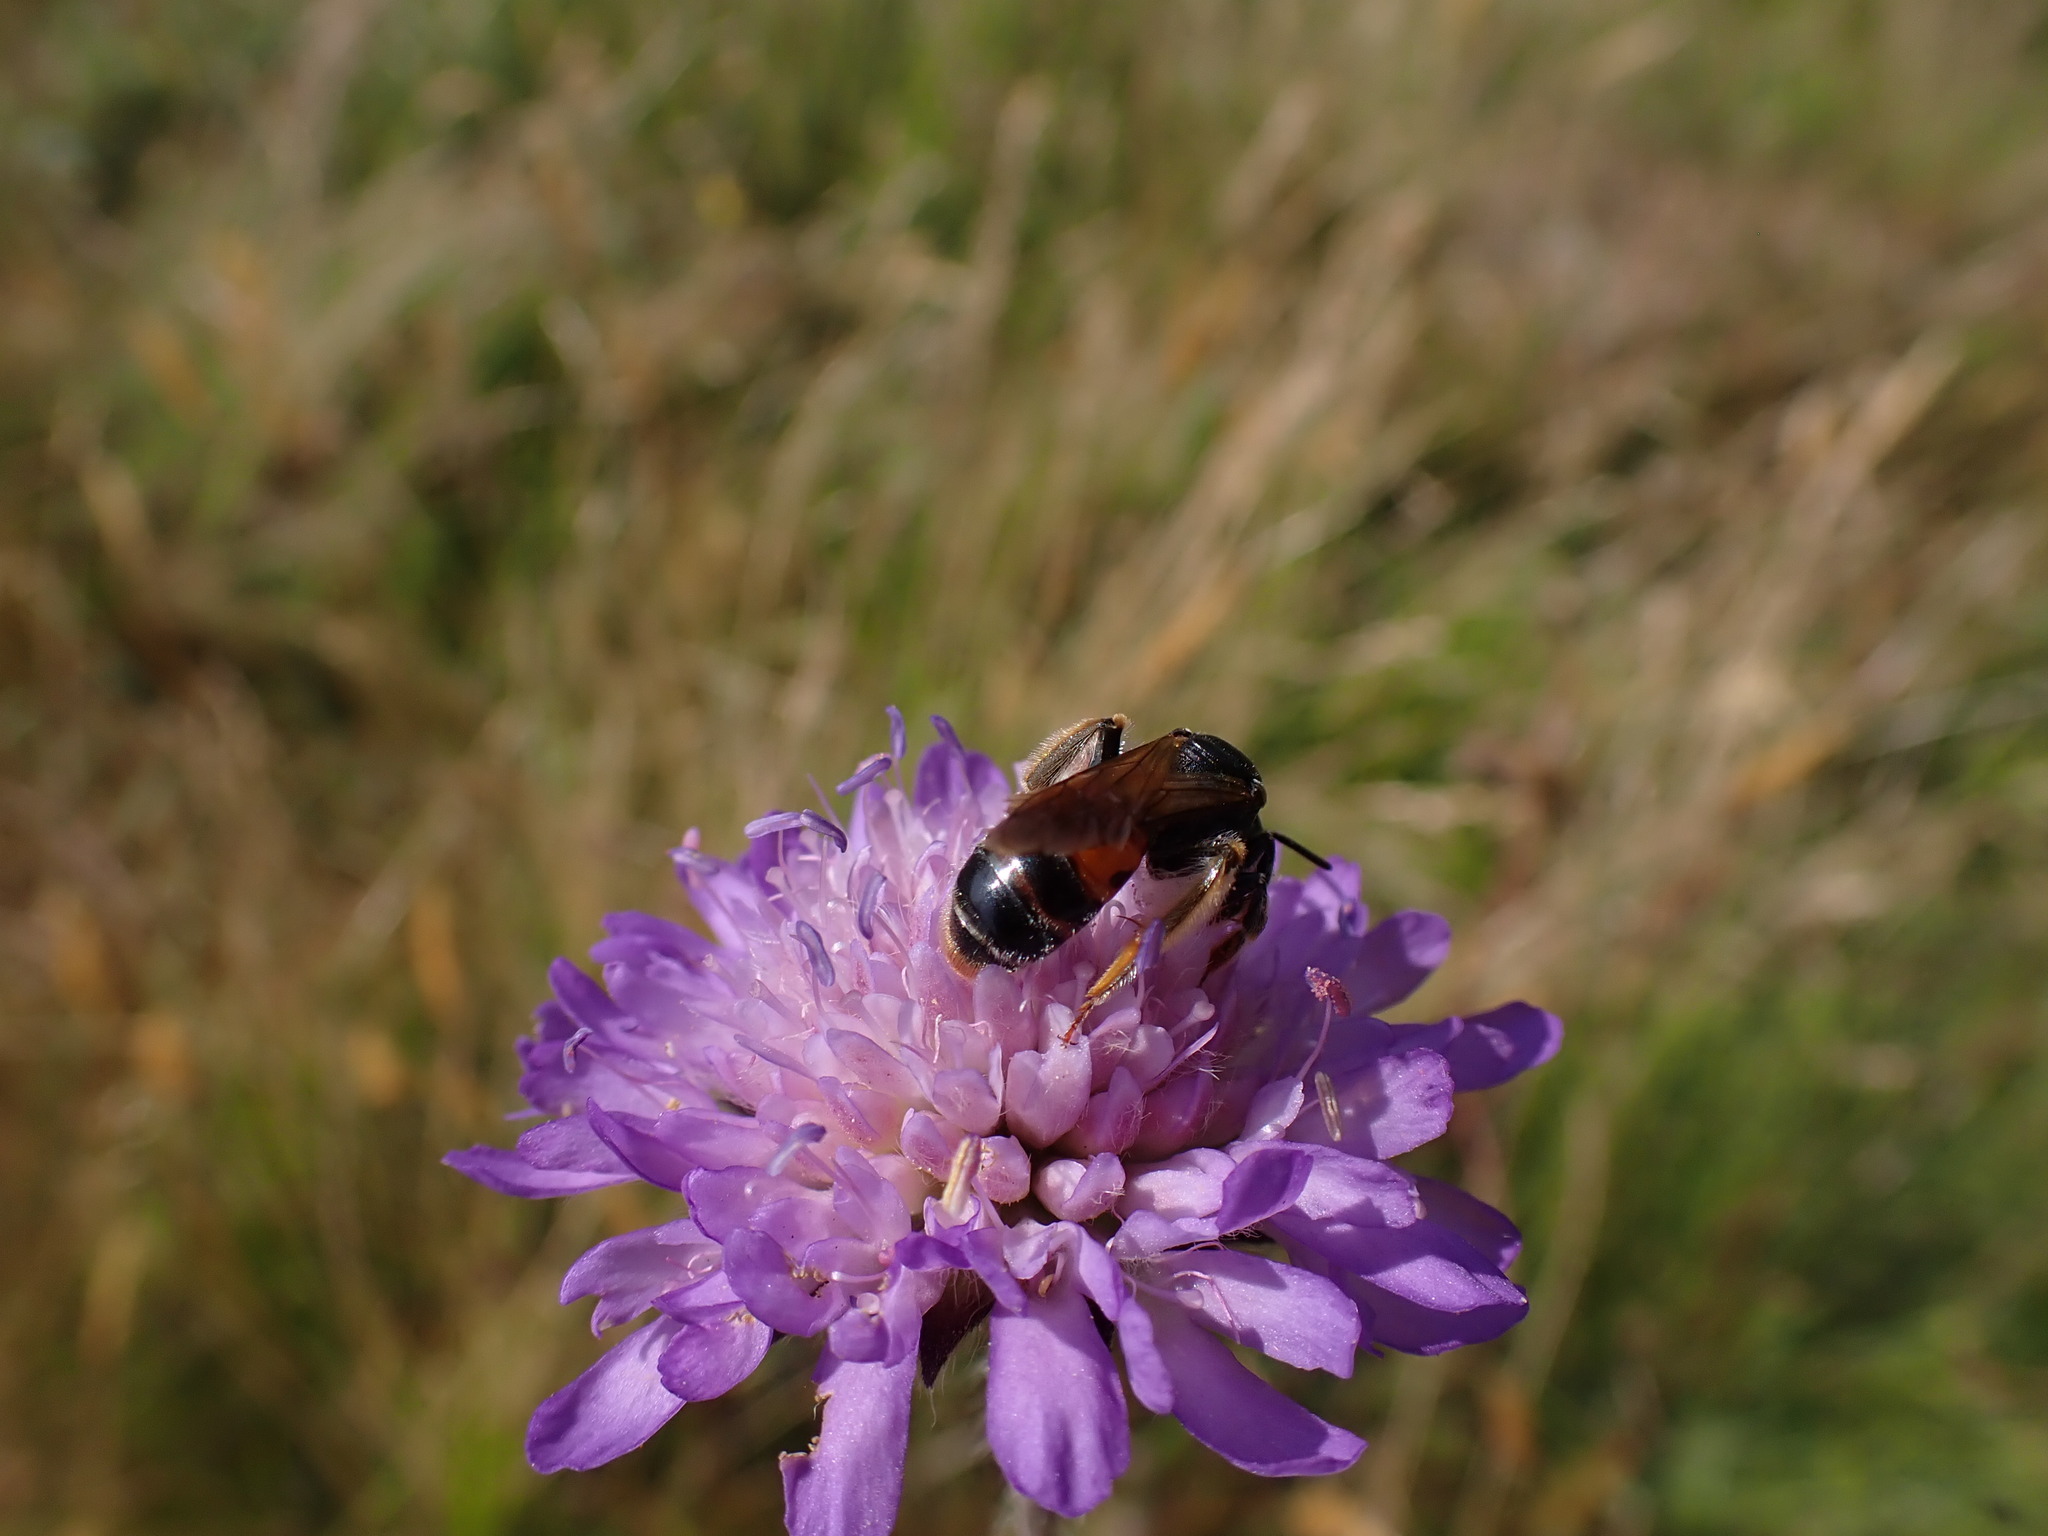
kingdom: Animalia
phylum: Arthropoda
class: Insecta
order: Hymenoptera
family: Andrenidae
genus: Andrena
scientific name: Andrena hattorfiana
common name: Large scabious mining bee
